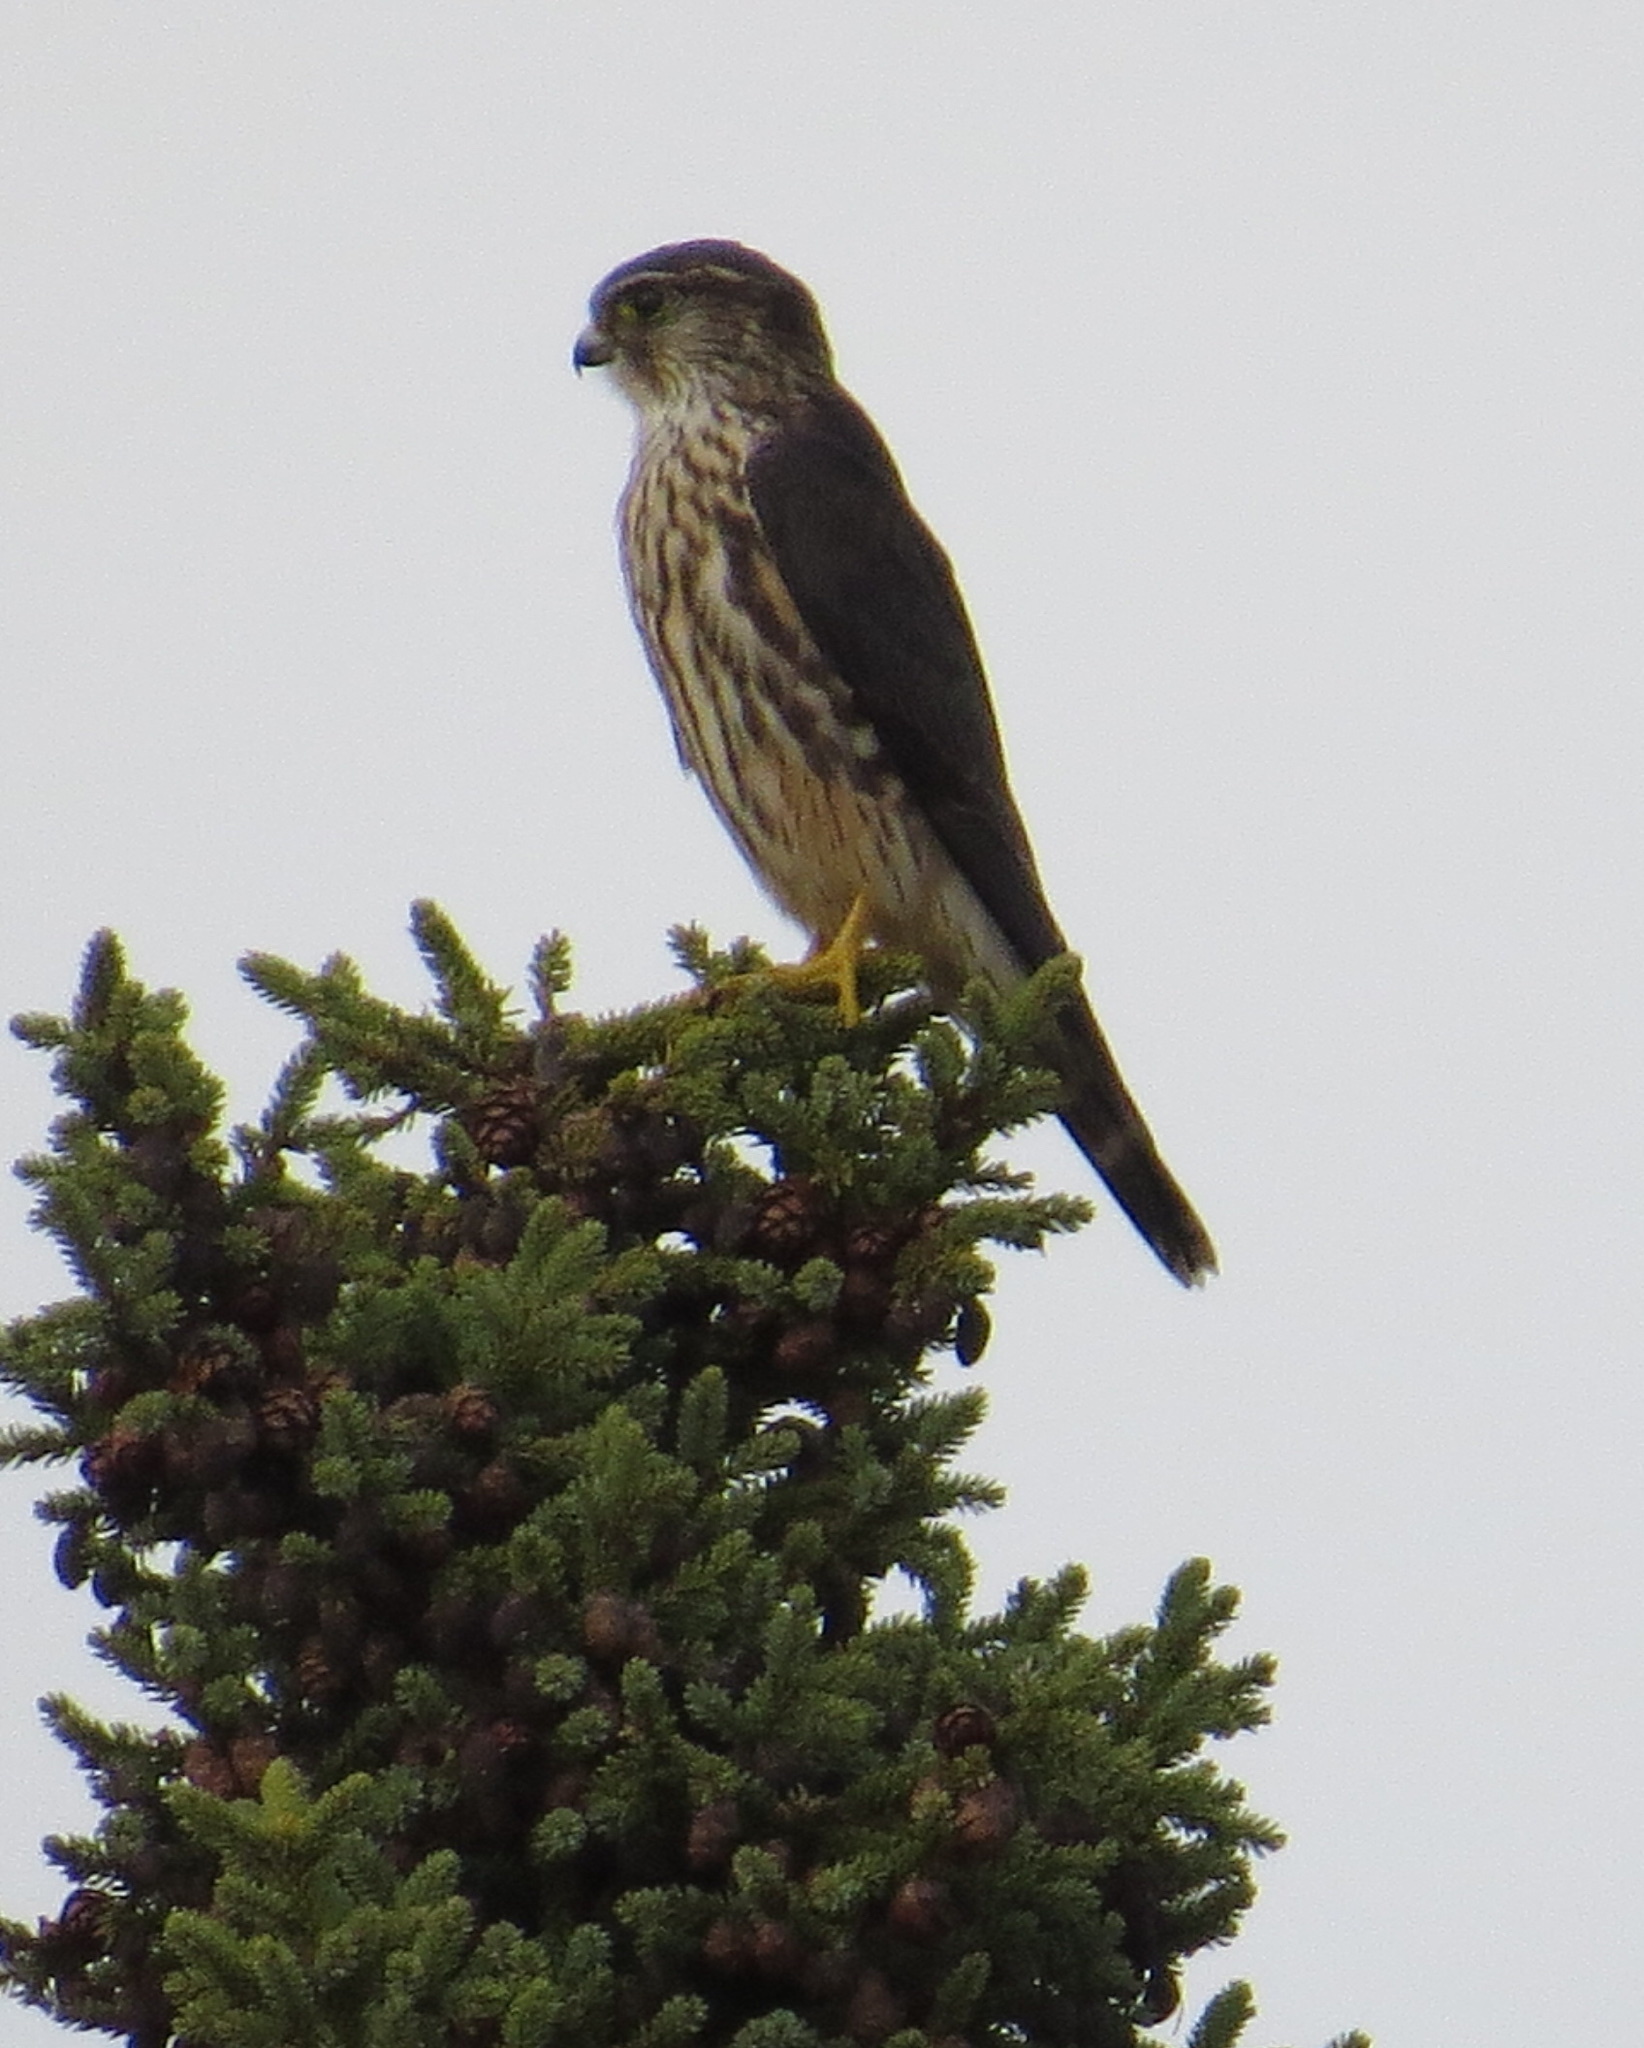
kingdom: Animalia
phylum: Chordata
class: Aves
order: Falconiformes
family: Falconidae
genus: Falco
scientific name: Falco columbarius
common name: Merlin
